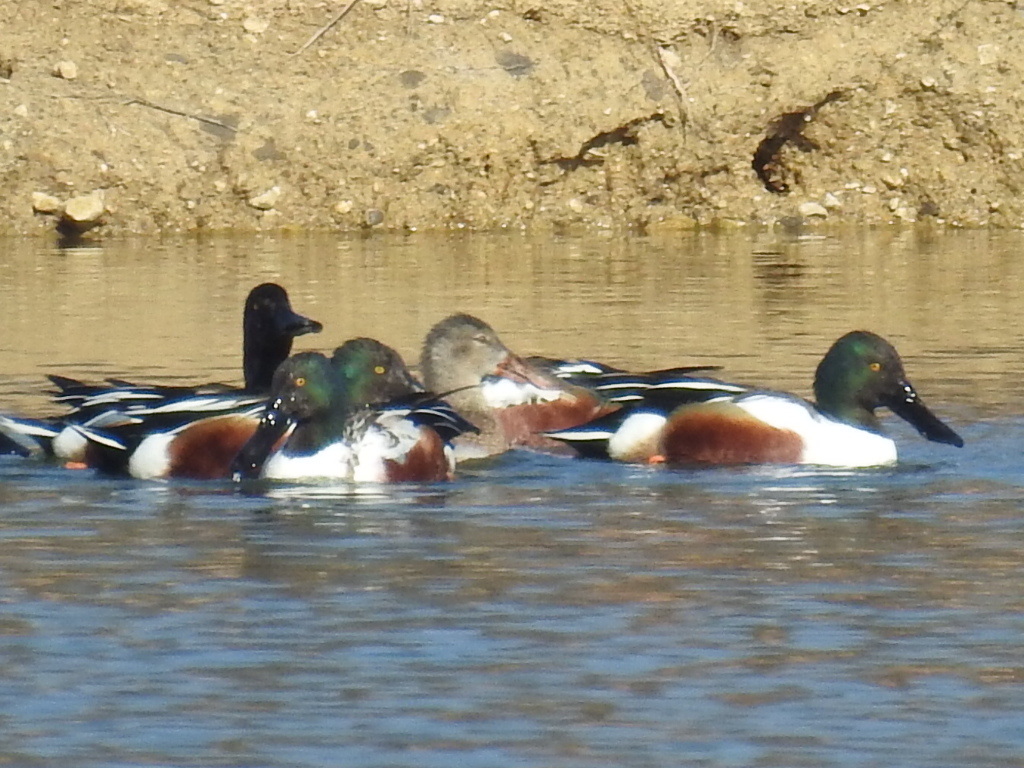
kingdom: Animalia
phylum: Chordata
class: Aves
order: Anseriformes
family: Anatidae
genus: Spatula
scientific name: Spatula clypeata
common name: Northern shoveler
